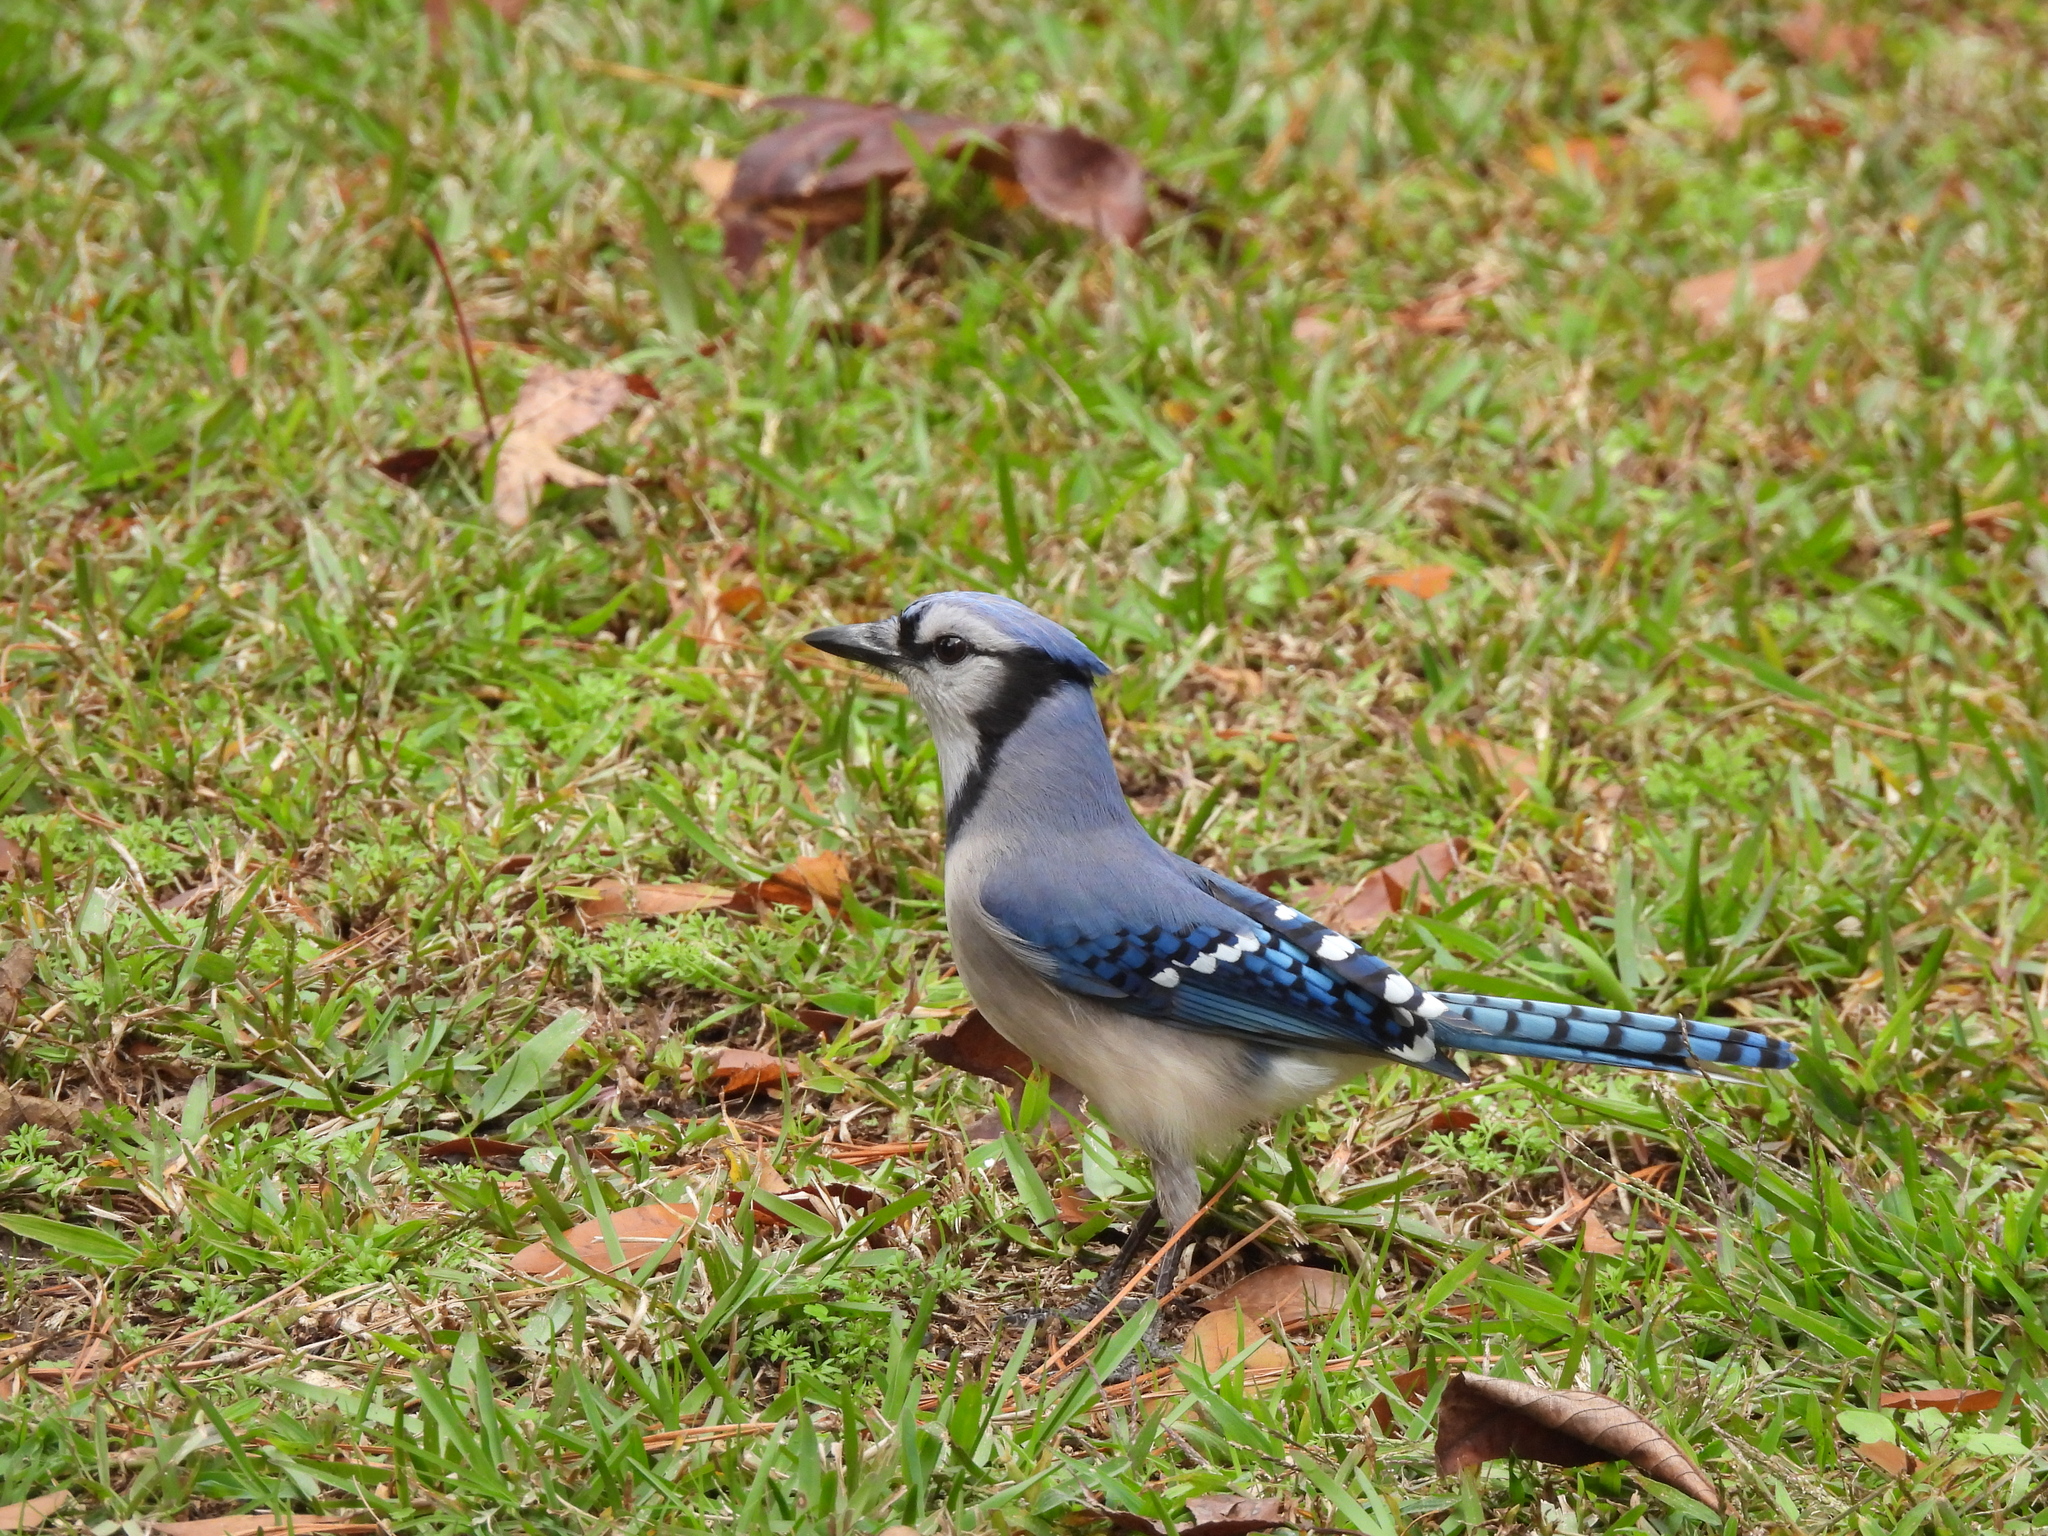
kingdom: Animalia
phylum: Chordata
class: Aves
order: Passeriformes
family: Corvidae
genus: Cyanocitta
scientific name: Cyanocitta cristata
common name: Blue jay
